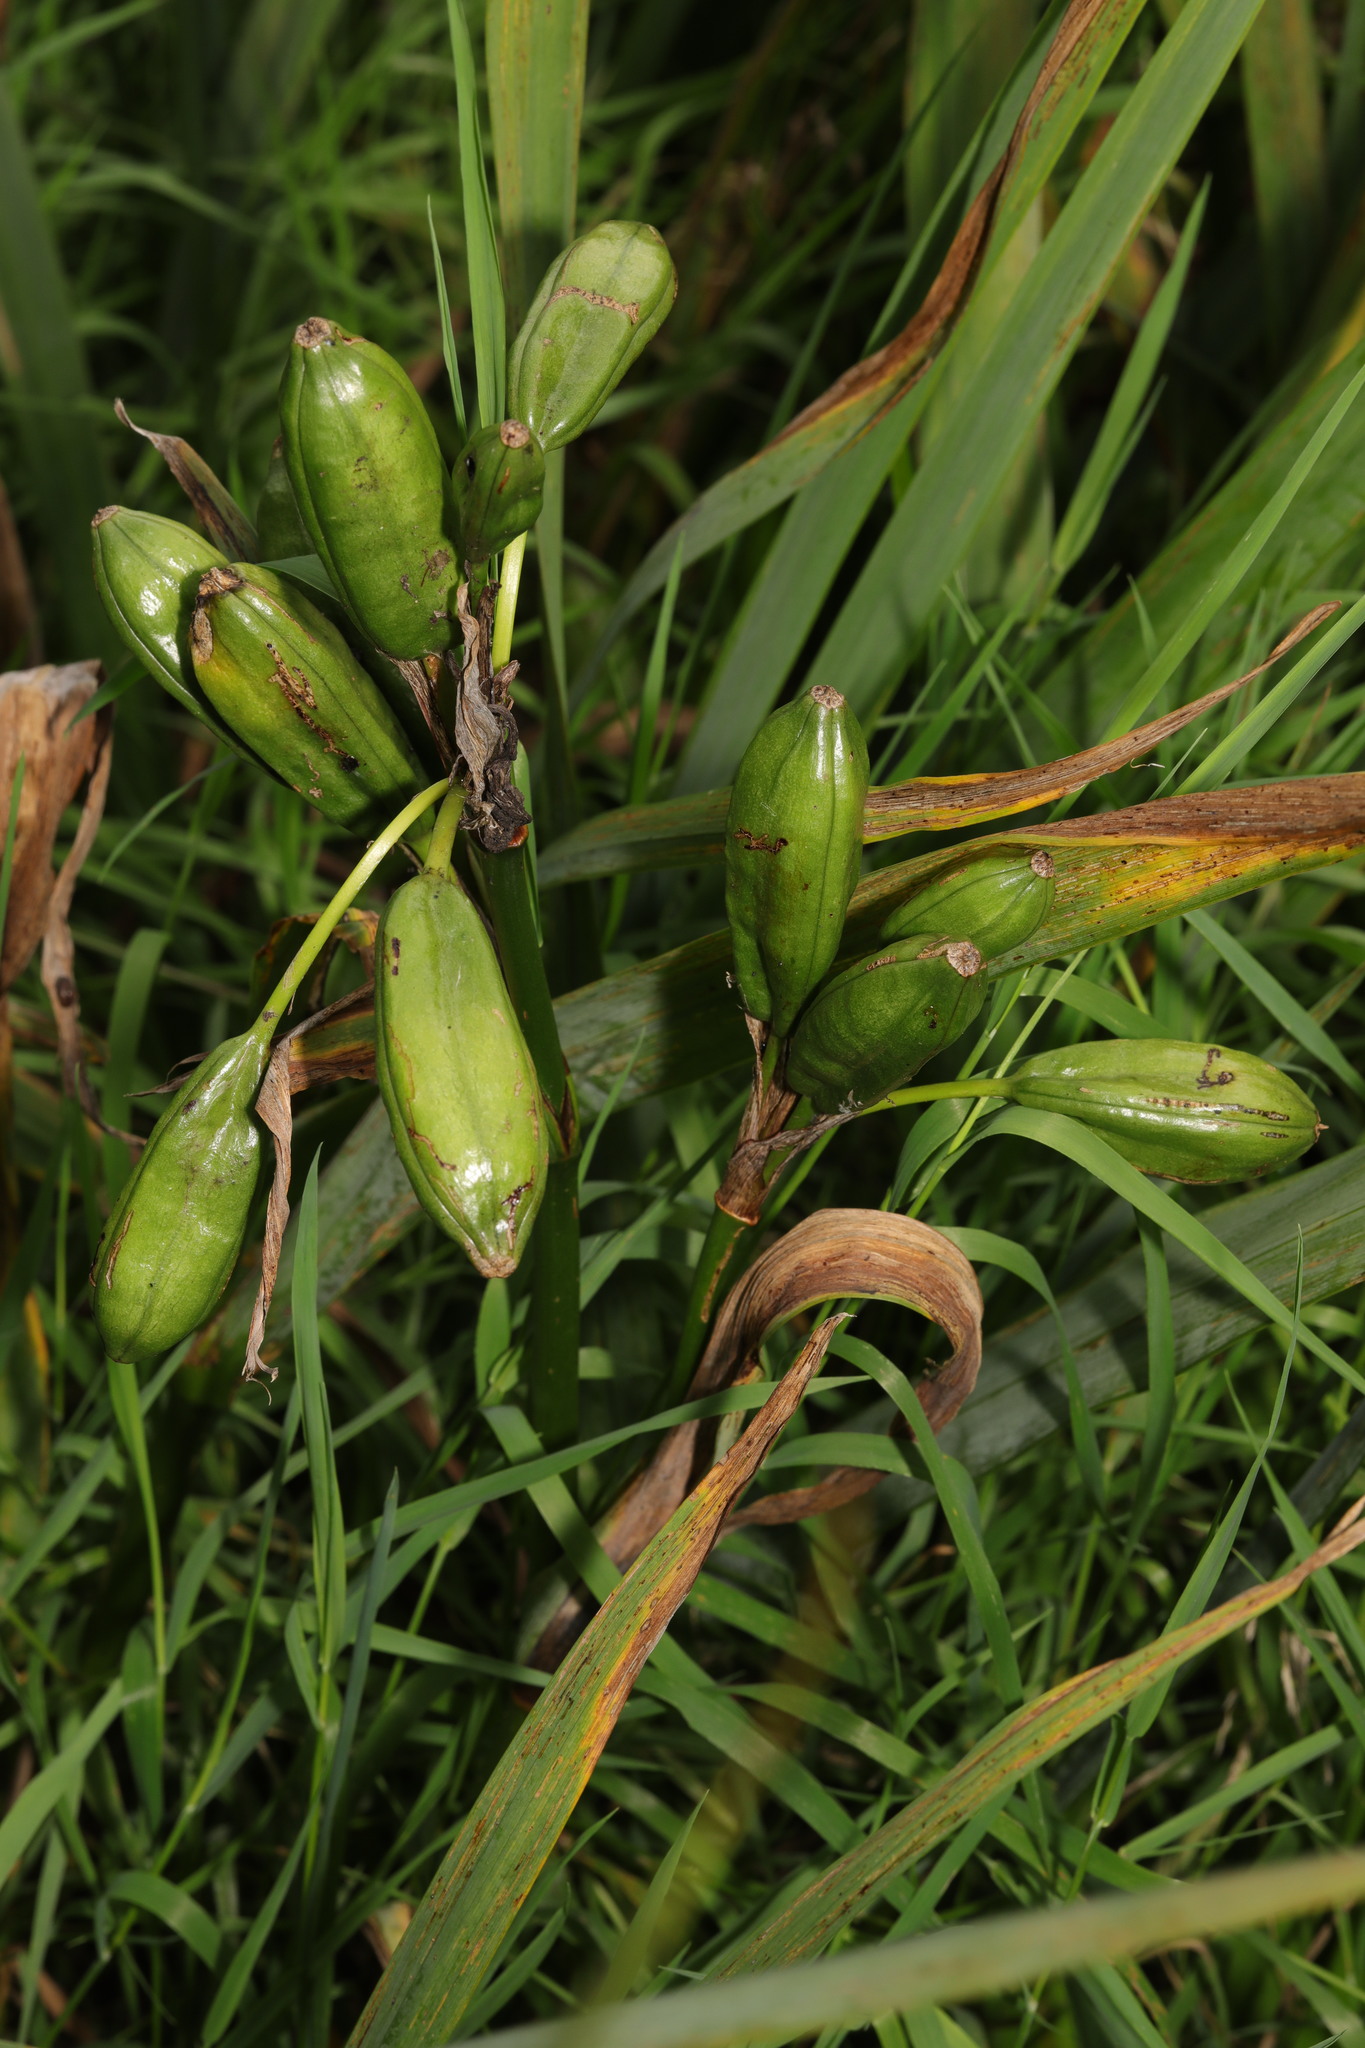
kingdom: Plantae
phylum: Tracheophyta
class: Liliopsida
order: Asparagales
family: Iridaceae
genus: Iris
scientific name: Iris pseudacorus
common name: Yellow flag
